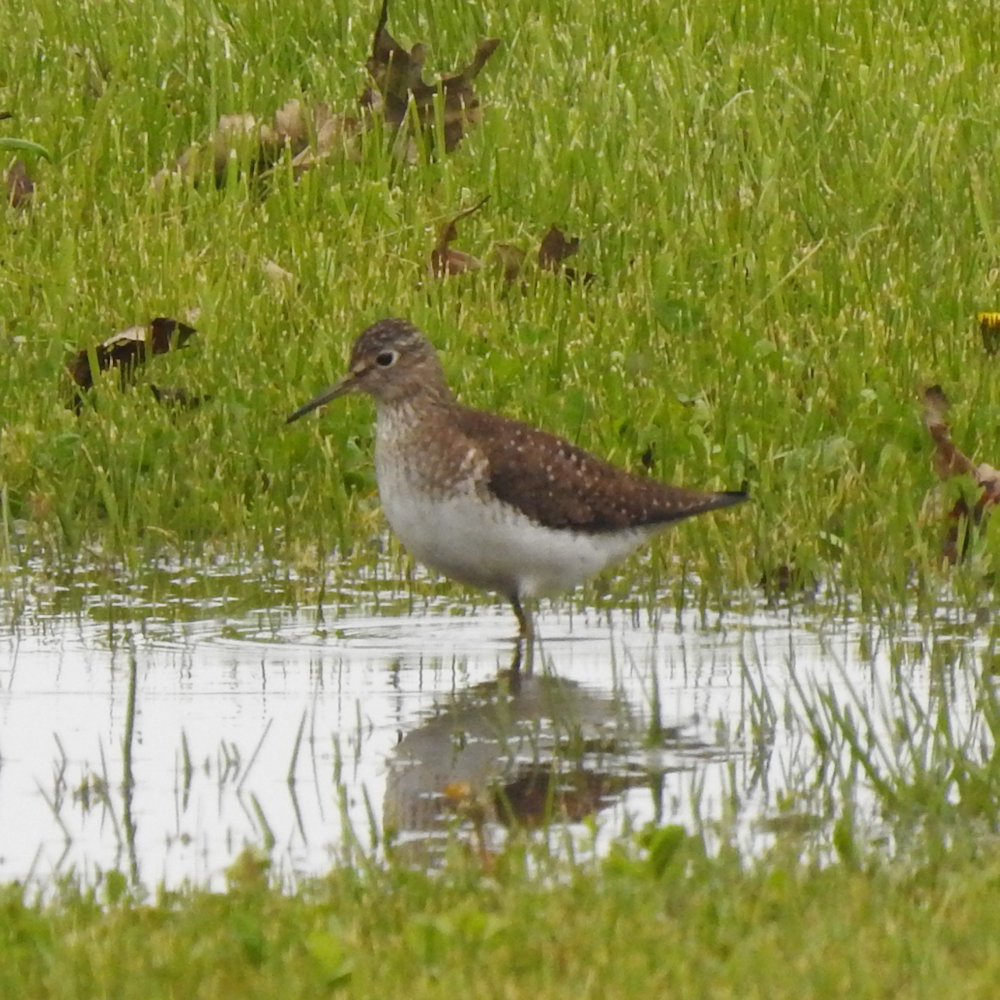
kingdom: Animalia
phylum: Chordata
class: Aves
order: Charadriiformes
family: Scolopacidae
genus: Tringa
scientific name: Tringa solitaria
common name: Solitary sandpiper
